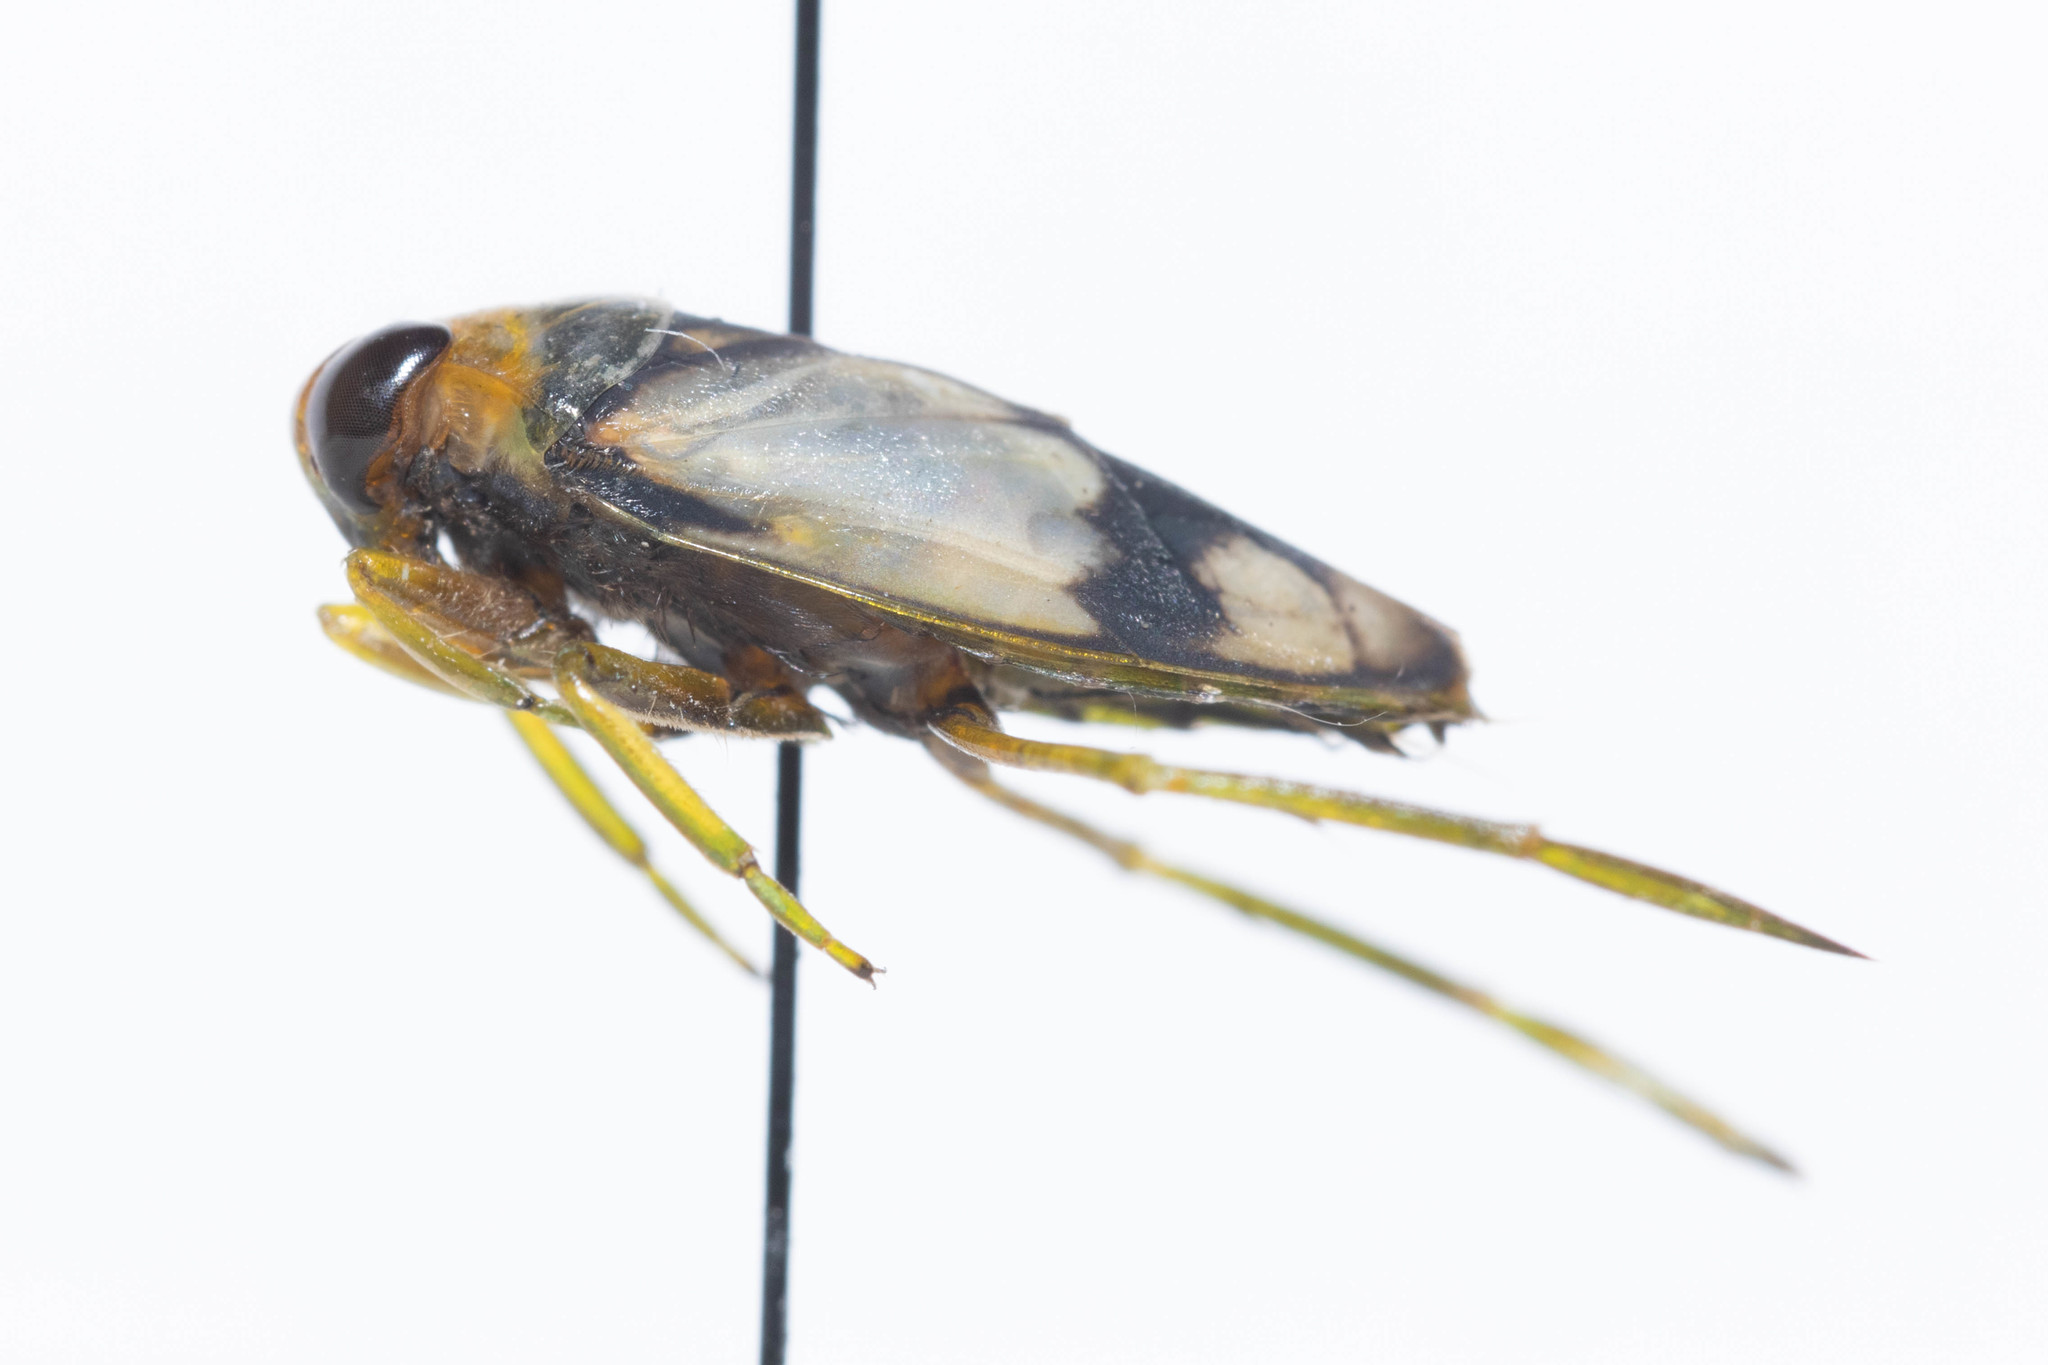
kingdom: Animalia
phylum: Arthropoda
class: Insecta
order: Hemiptera
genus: Paranecta
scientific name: Paranecta
